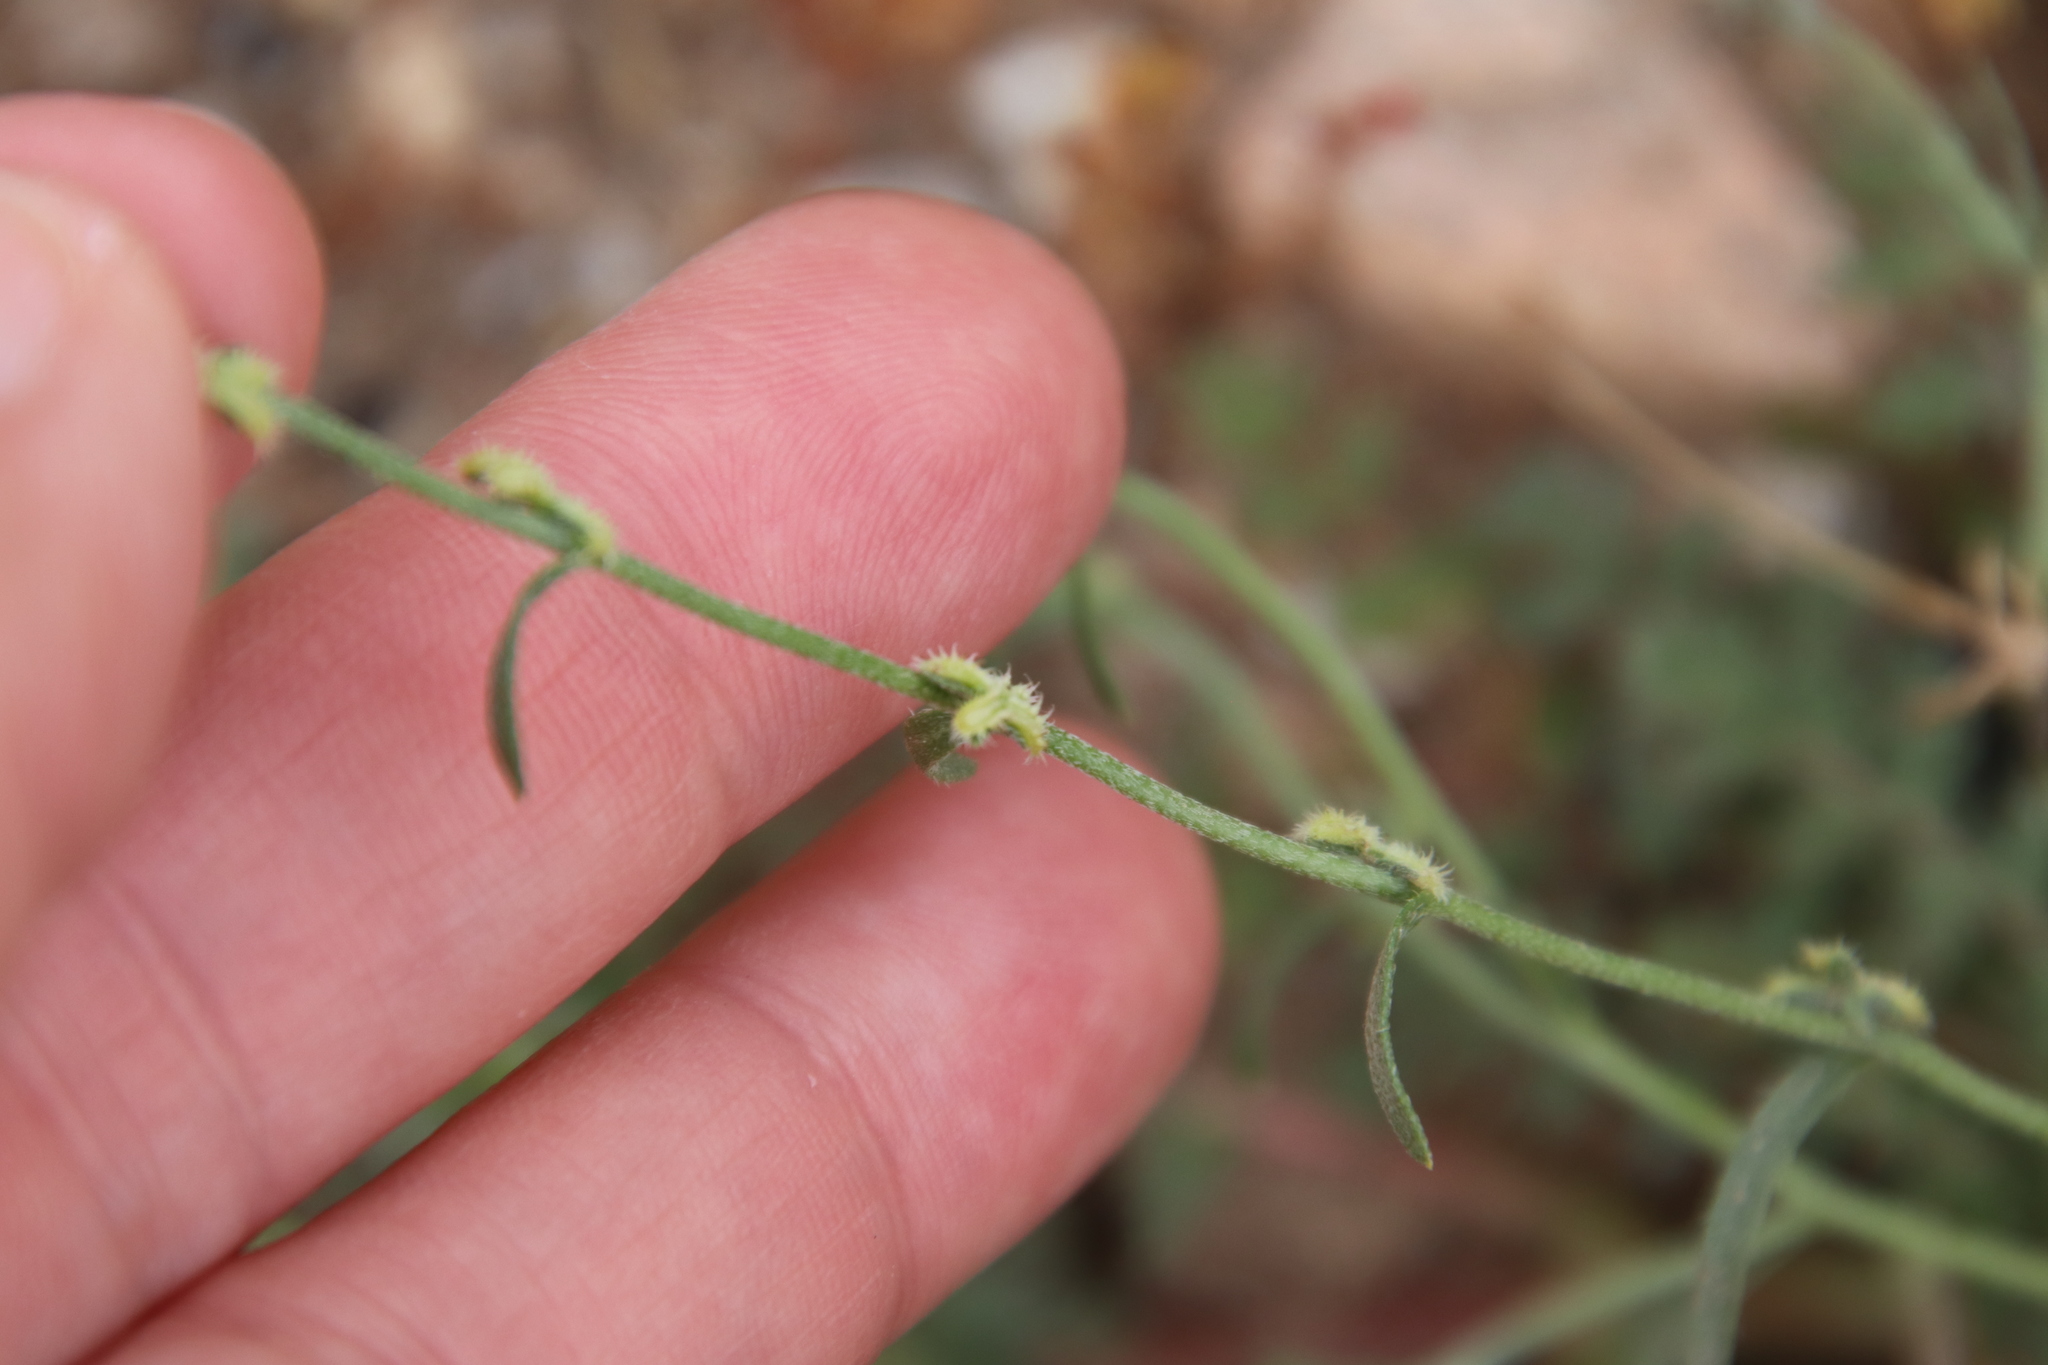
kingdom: Plantae
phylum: Tracheophyta
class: Magnoliopsida
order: Boraginales
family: Boraginaceae
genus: Pectocarya
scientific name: Pectocarya linearis
